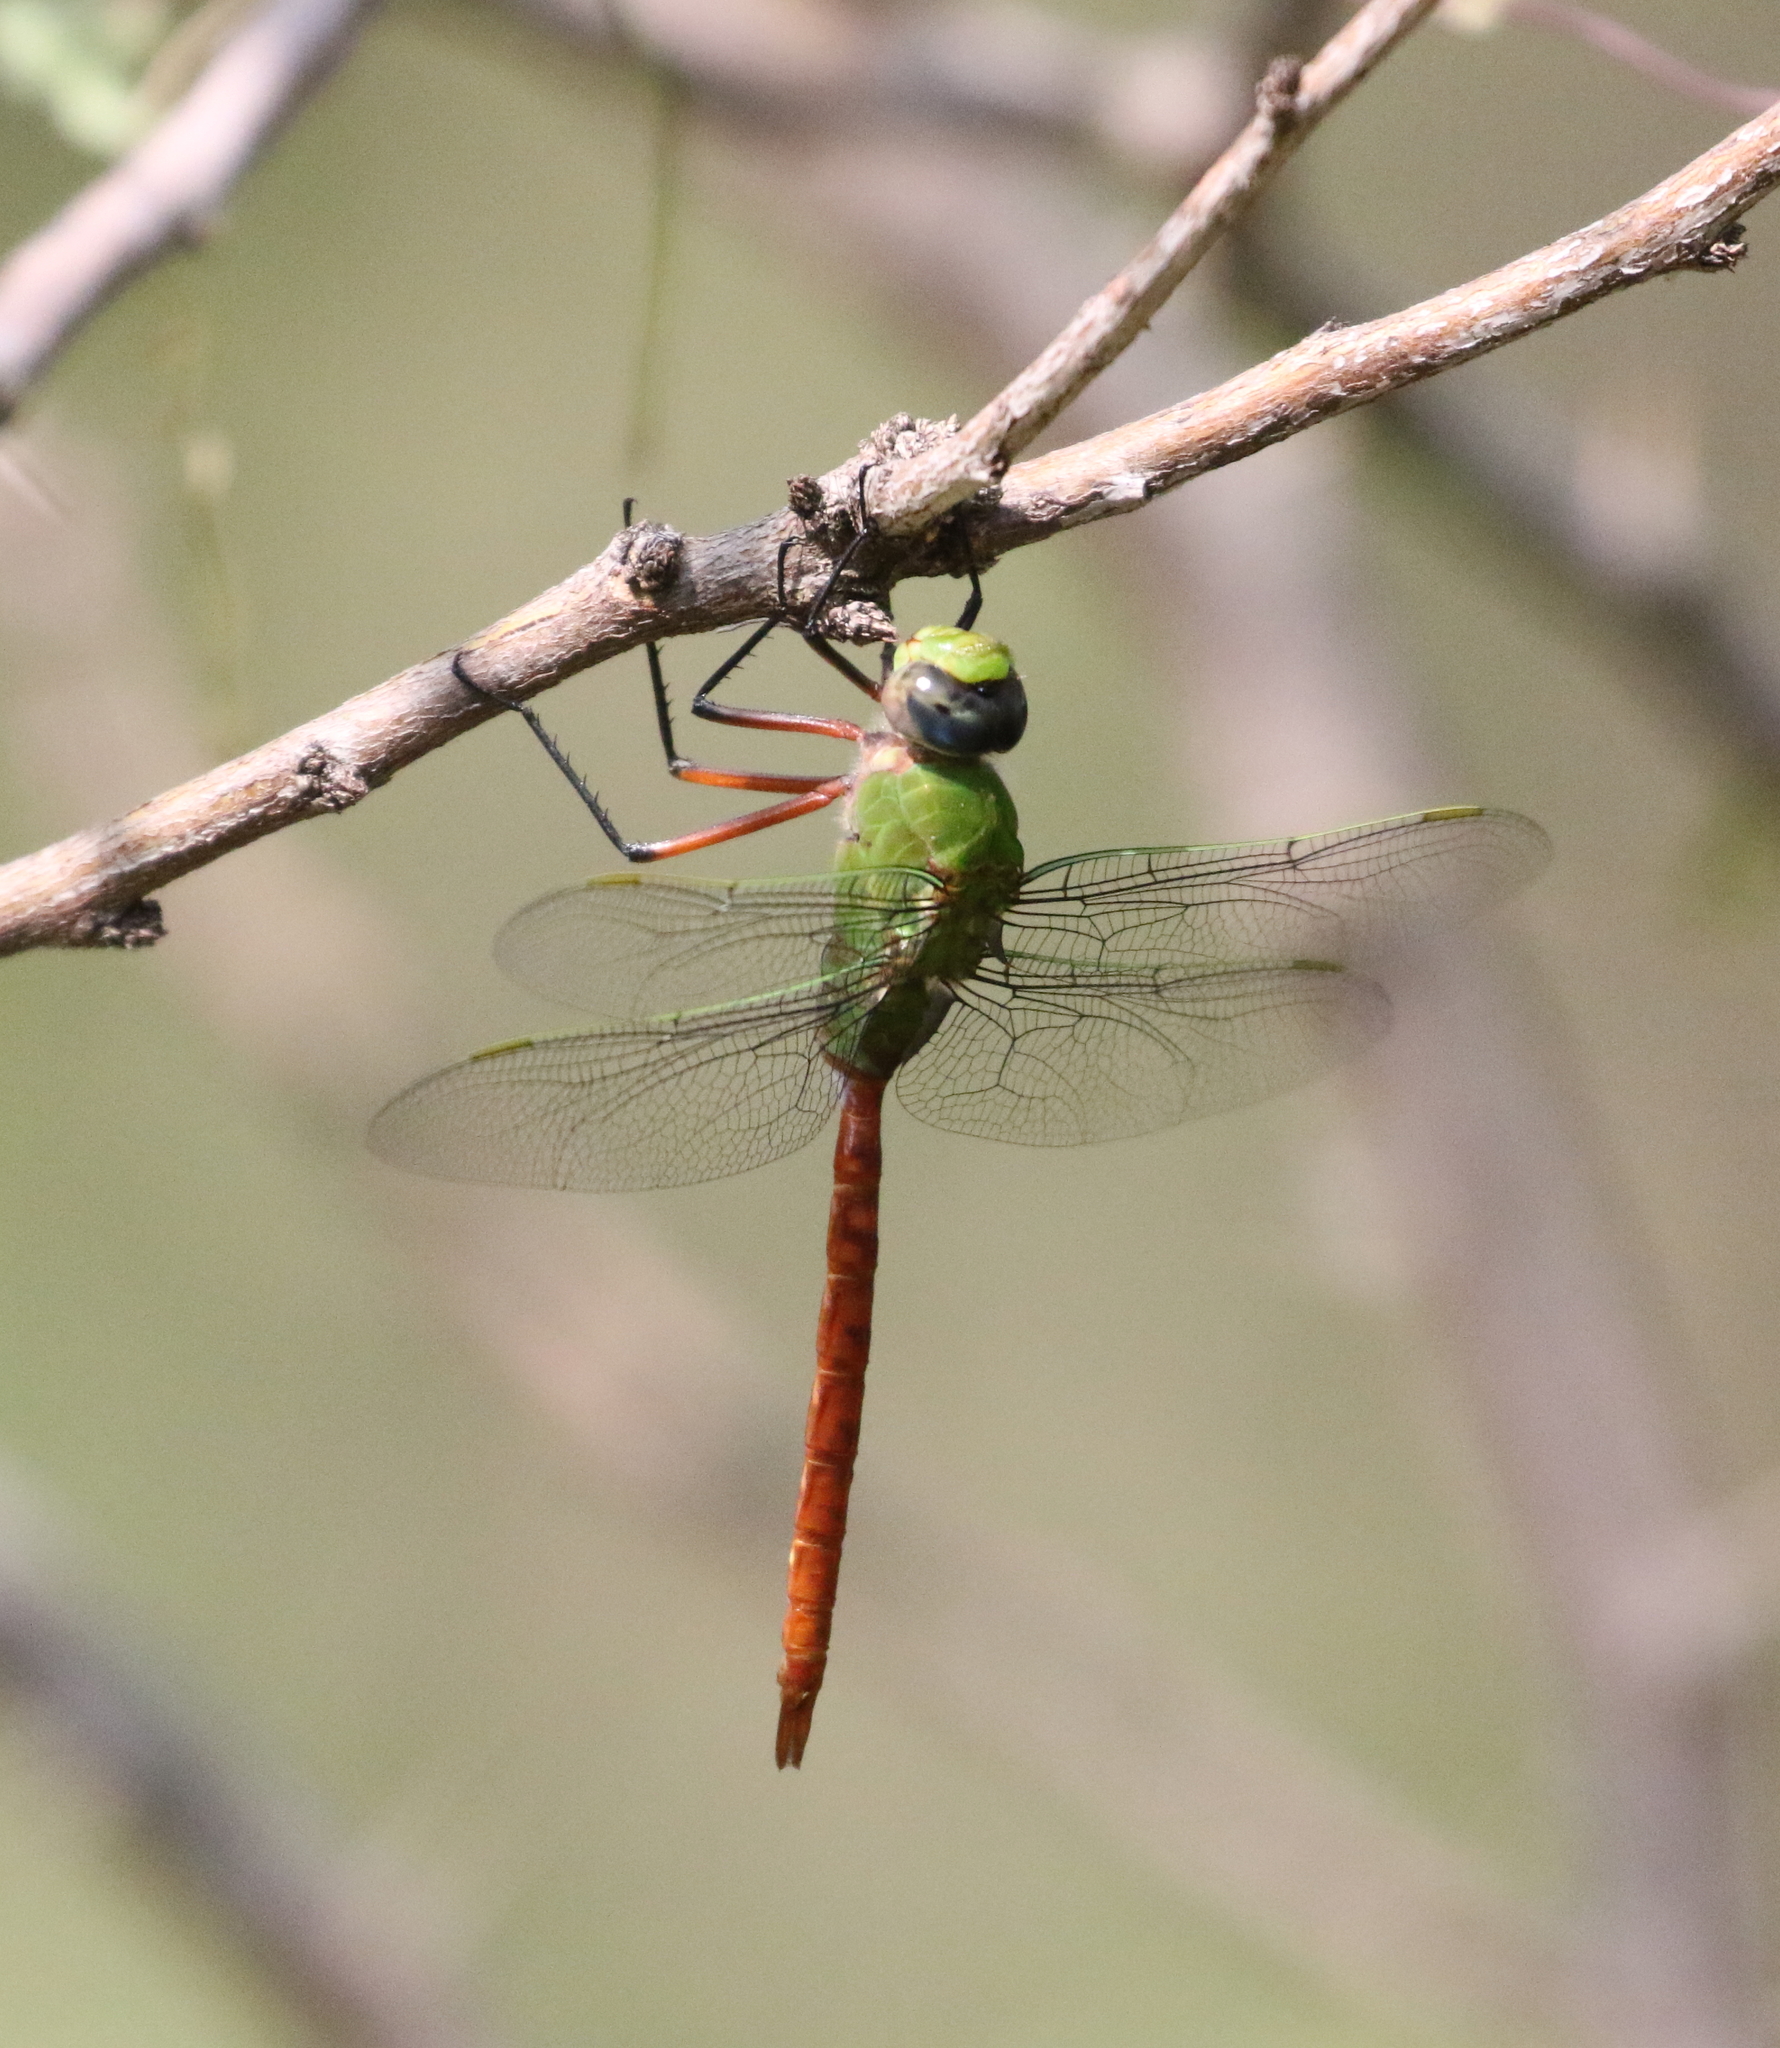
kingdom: Animalia
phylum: Arthropoda
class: Insecta
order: Odonata
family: Aeshnidae
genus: Anax
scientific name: Anax longipes
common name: Comet darner
